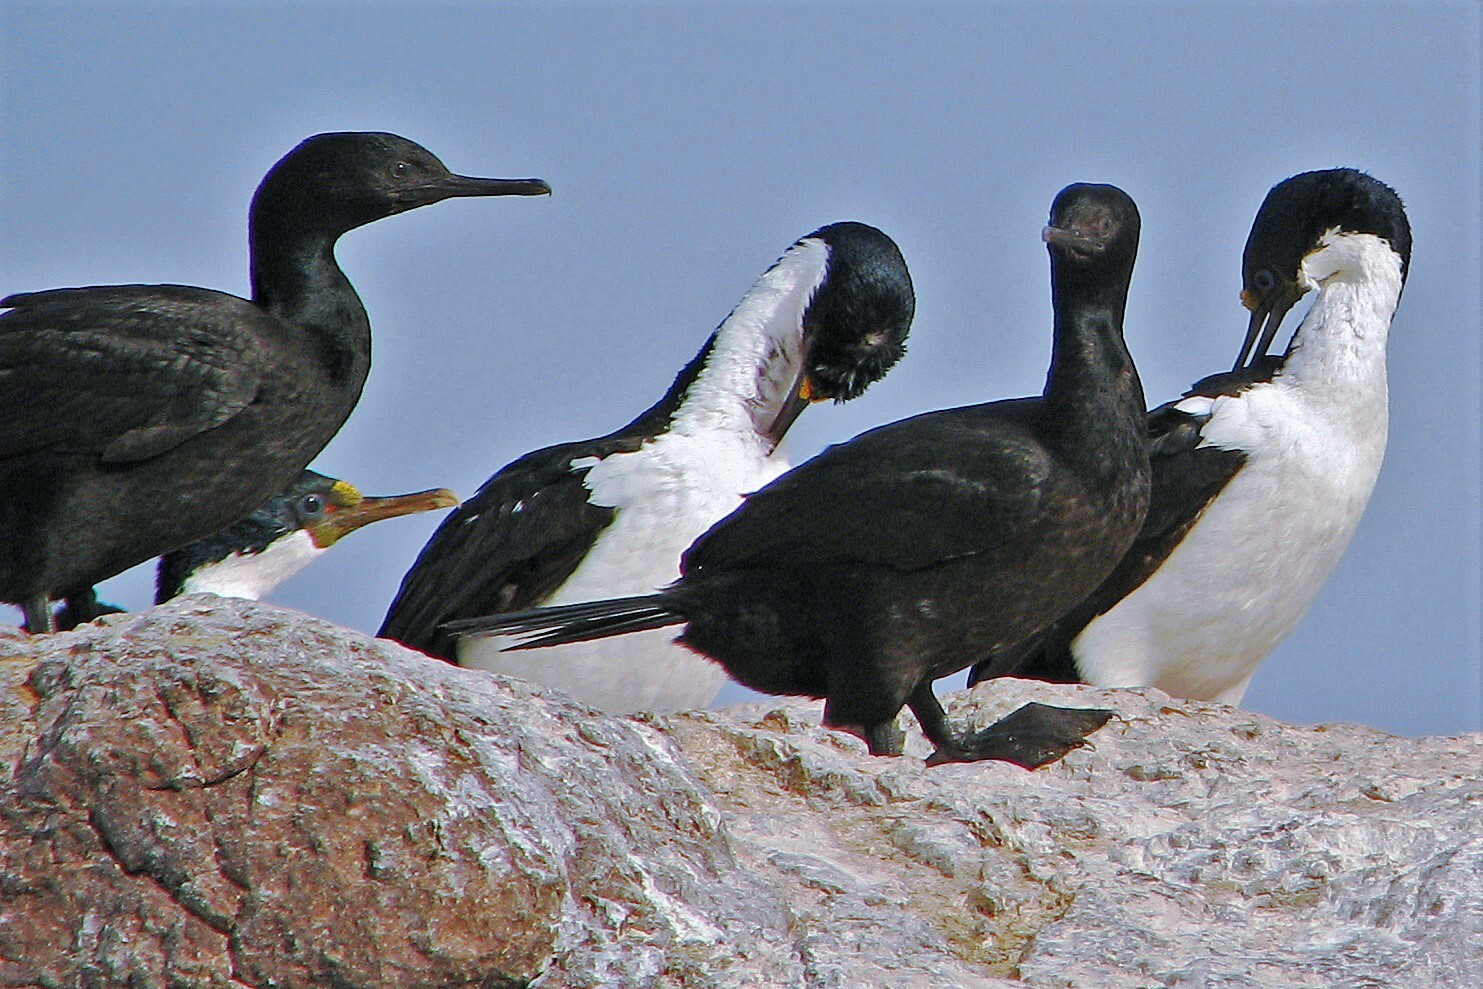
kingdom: Animalia
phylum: Chordata
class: Aves
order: Suliformes
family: Phalacrocoracidae
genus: Leucocarbo
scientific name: Leucocarbo atriceps
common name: Imperial shag
